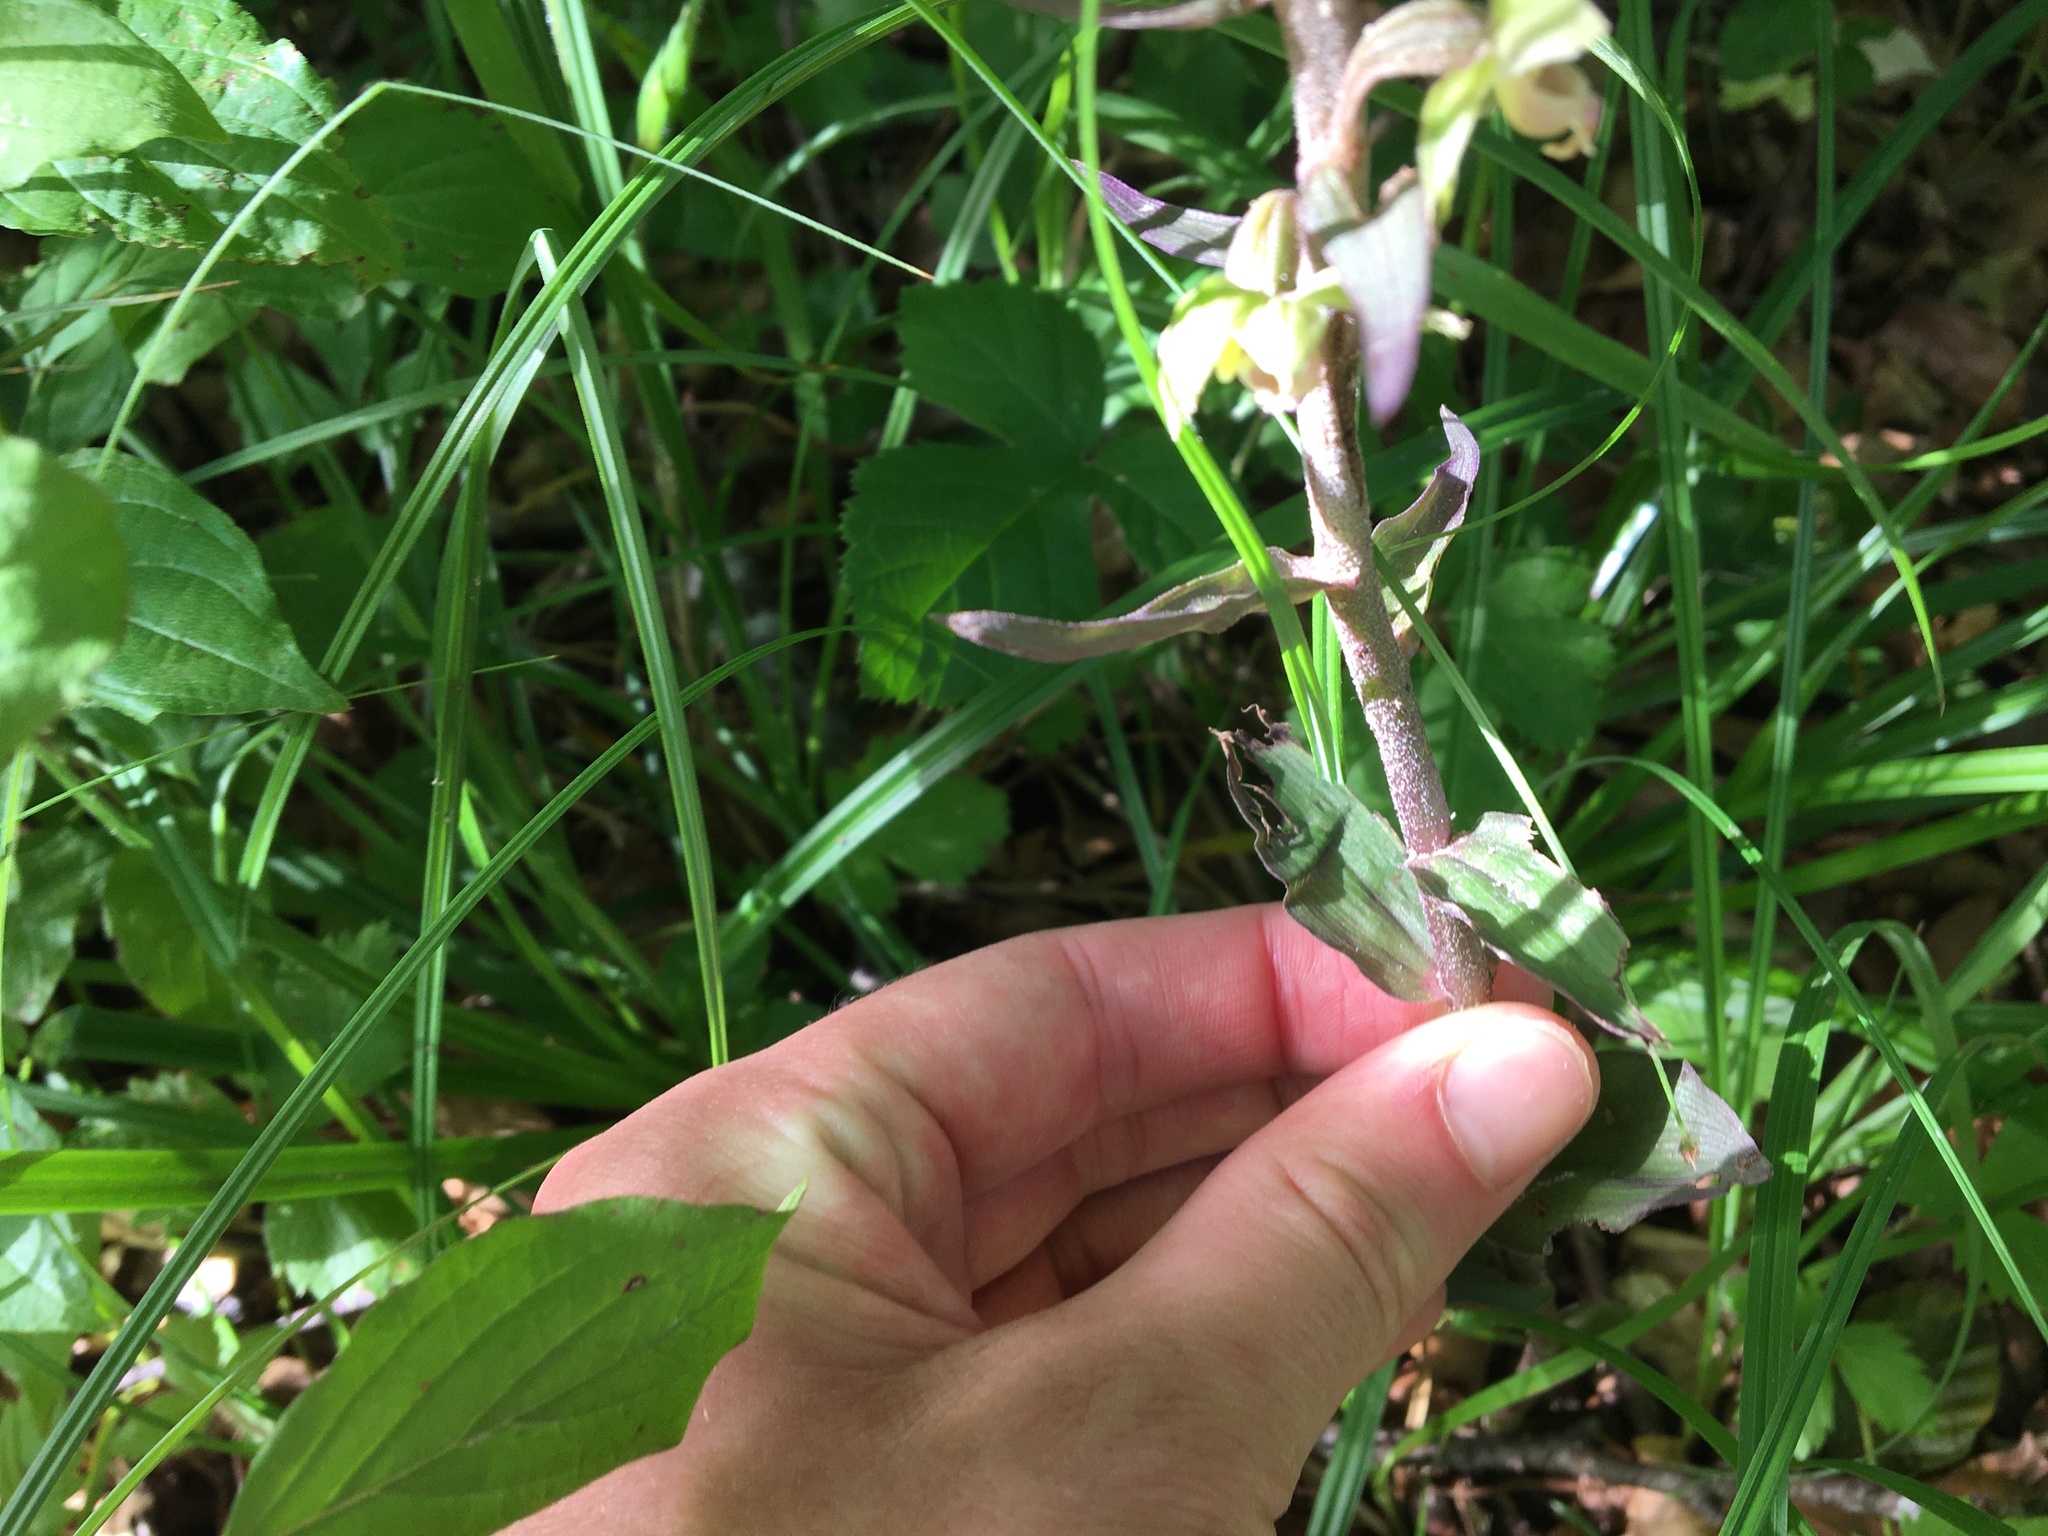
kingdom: Plantae
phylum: Tracheophyta
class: Liliopsida
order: Asparagales
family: Orchidaceae
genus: Epipactis
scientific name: Epipactis helleborine
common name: Broad-leaved helleborine
